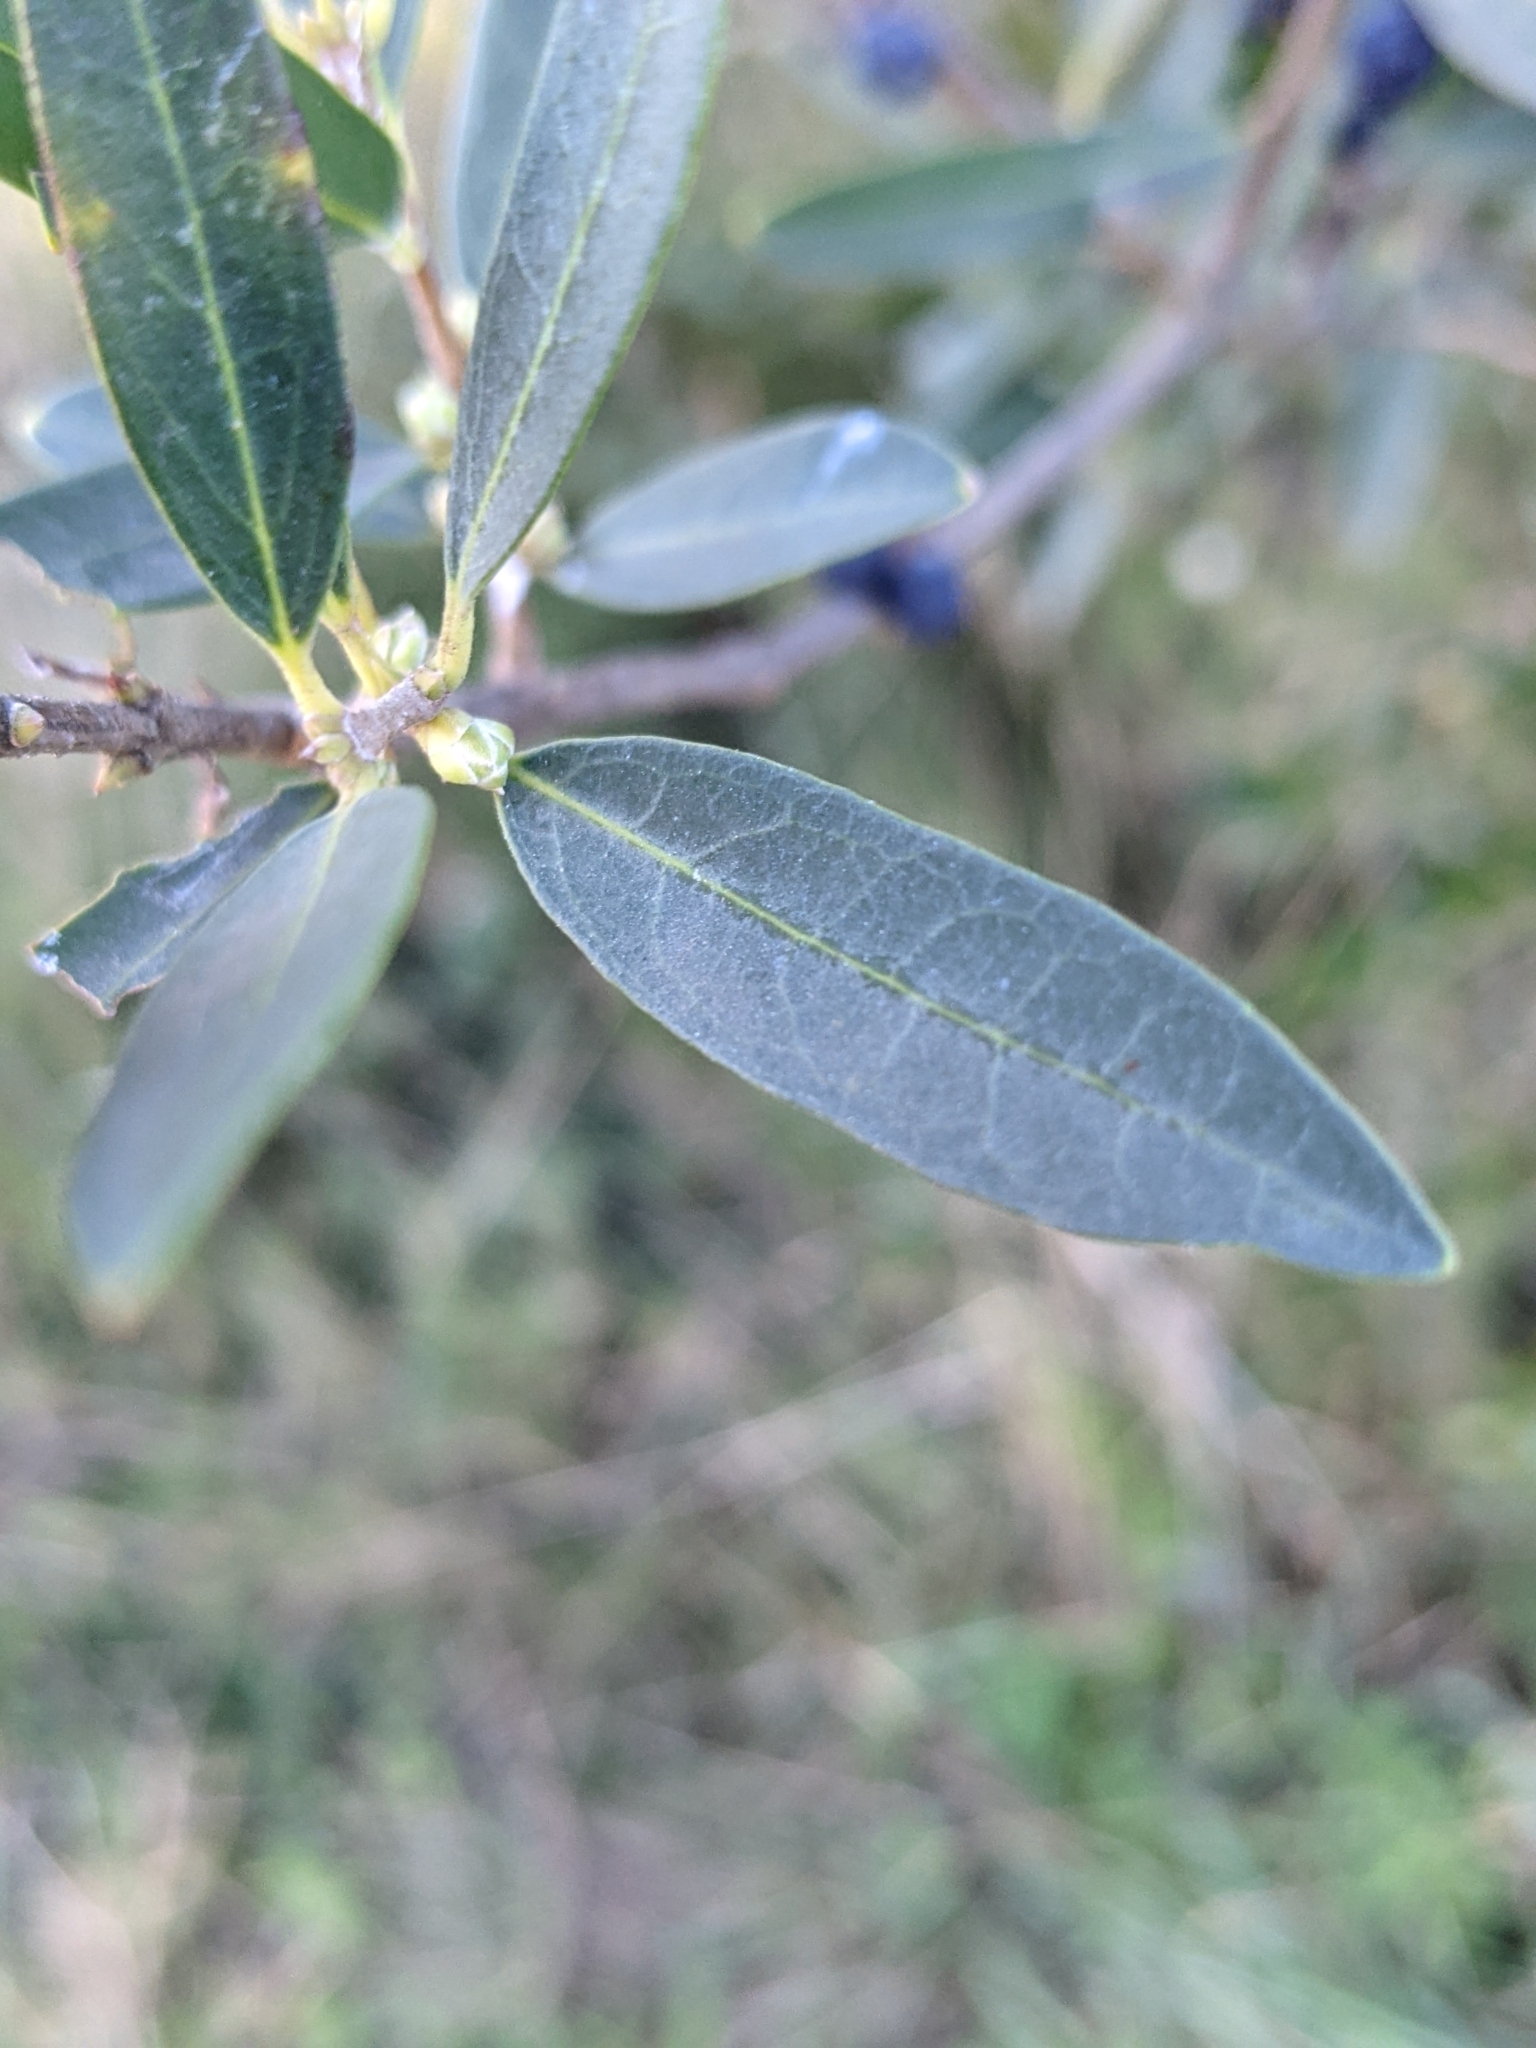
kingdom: Plantae
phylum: Tracheophyta
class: Magnoliopsida
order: Lamiales
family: Oleaceae
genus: Phillyrea
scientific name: Phillyrea angustifolia
